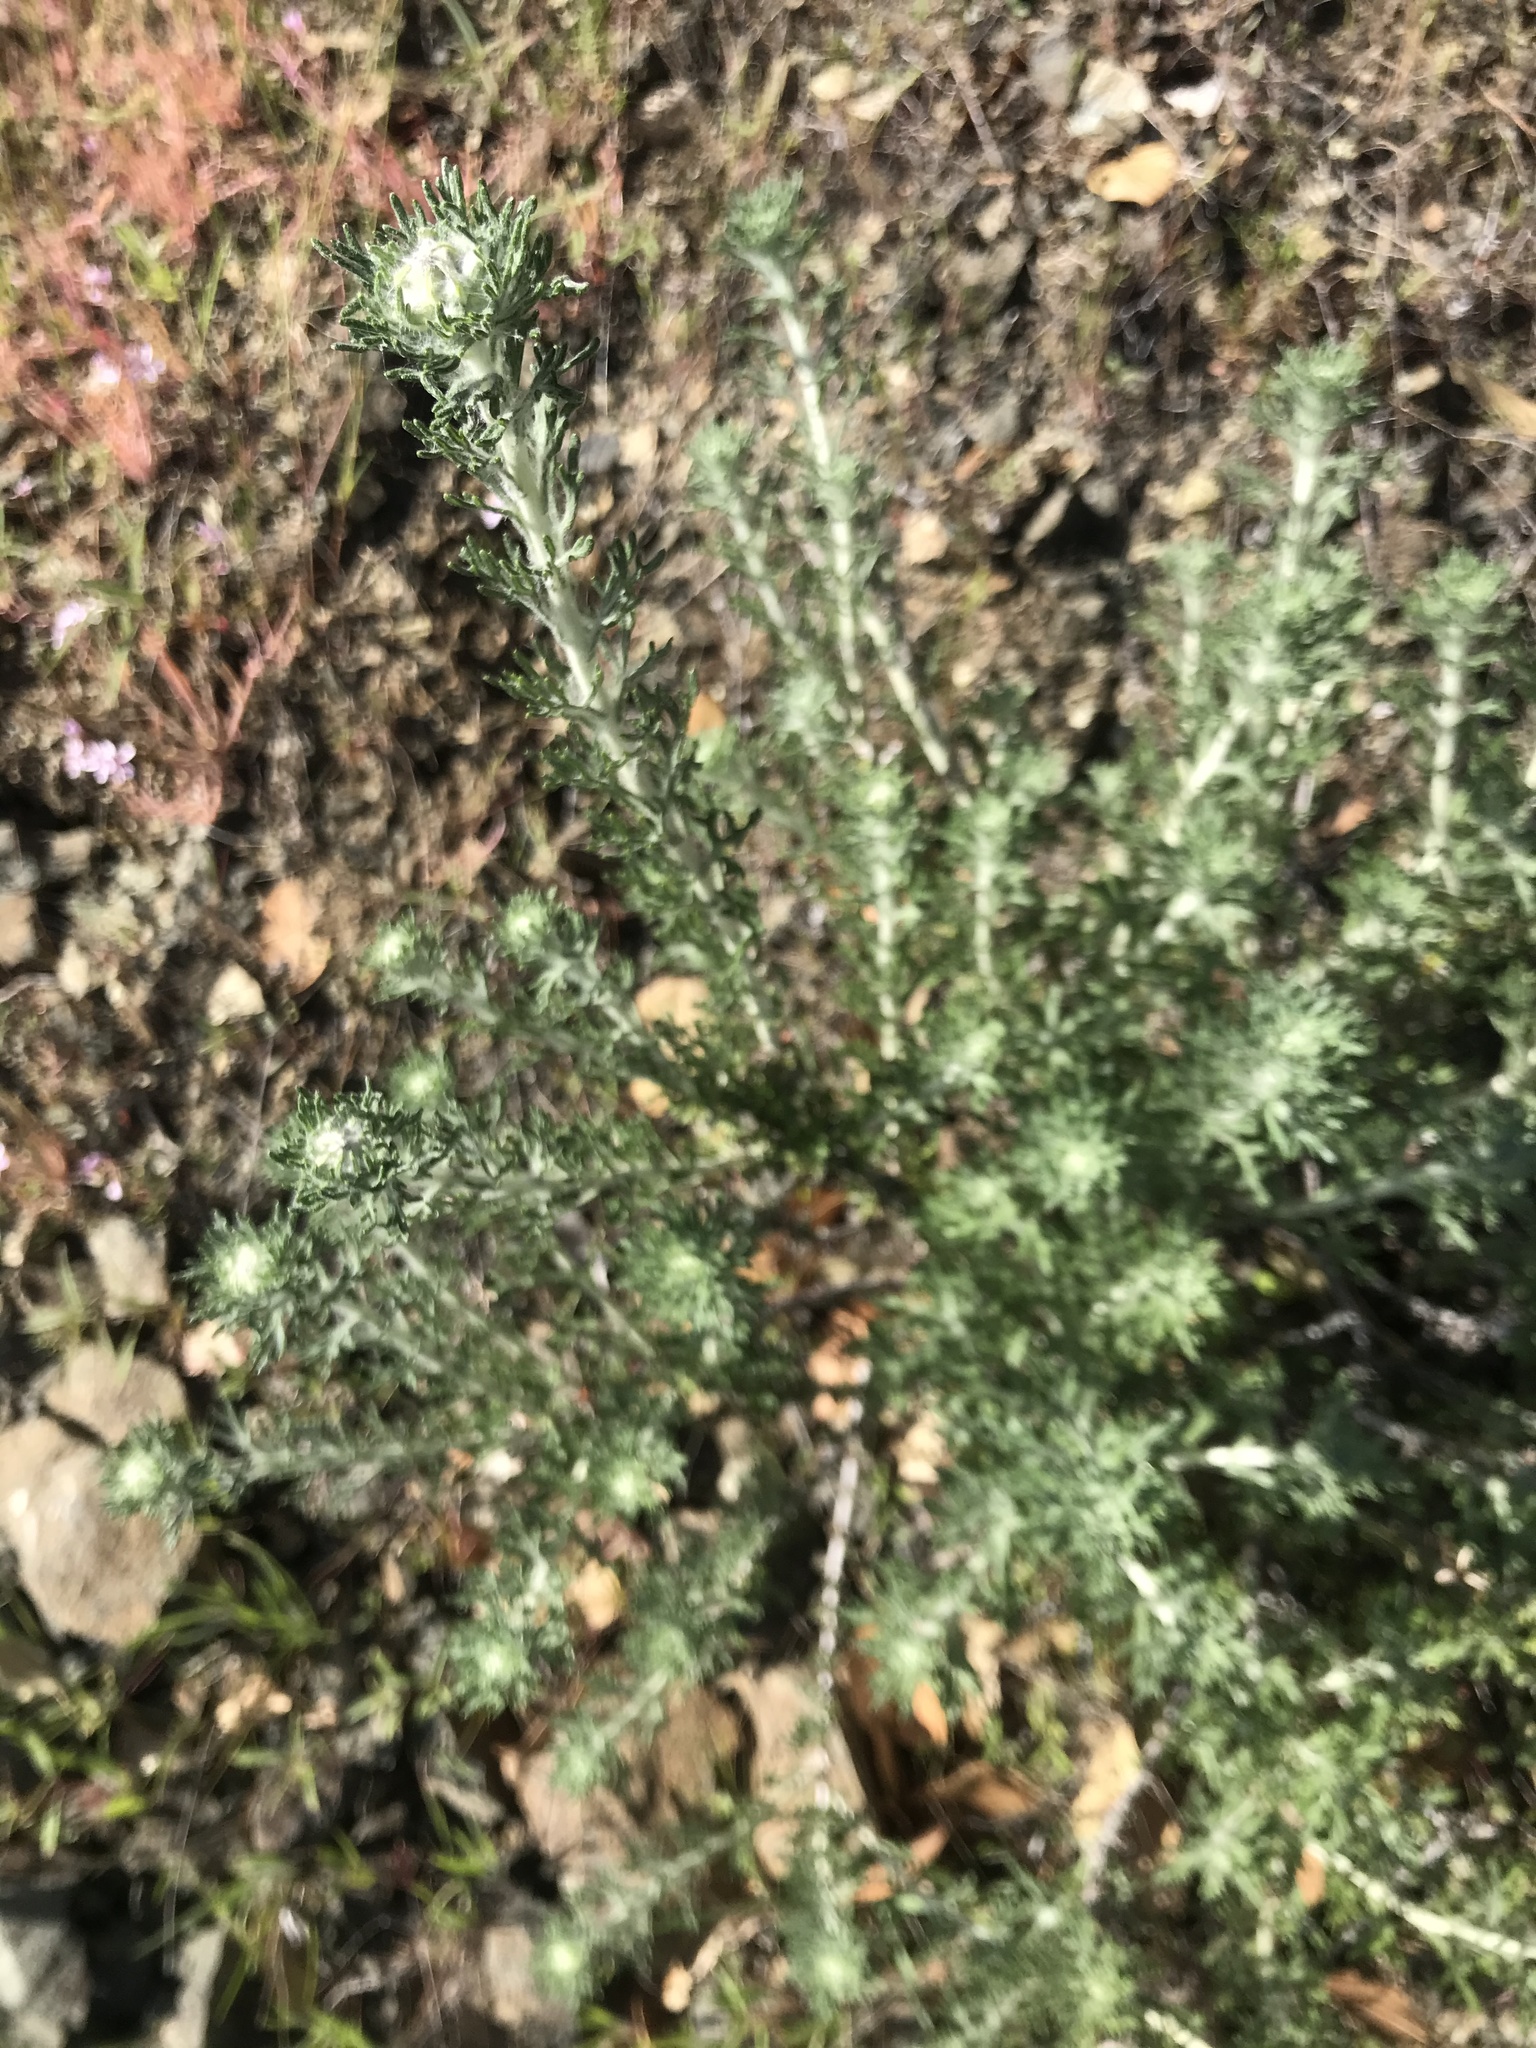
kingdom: Plantae
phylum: Tracheophyta
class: Magnoliopsida
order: Asterales
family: Asteraceae
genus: Eriophyllum
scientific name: Eriophyllum confertiflorum
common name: Golden-yarrow
